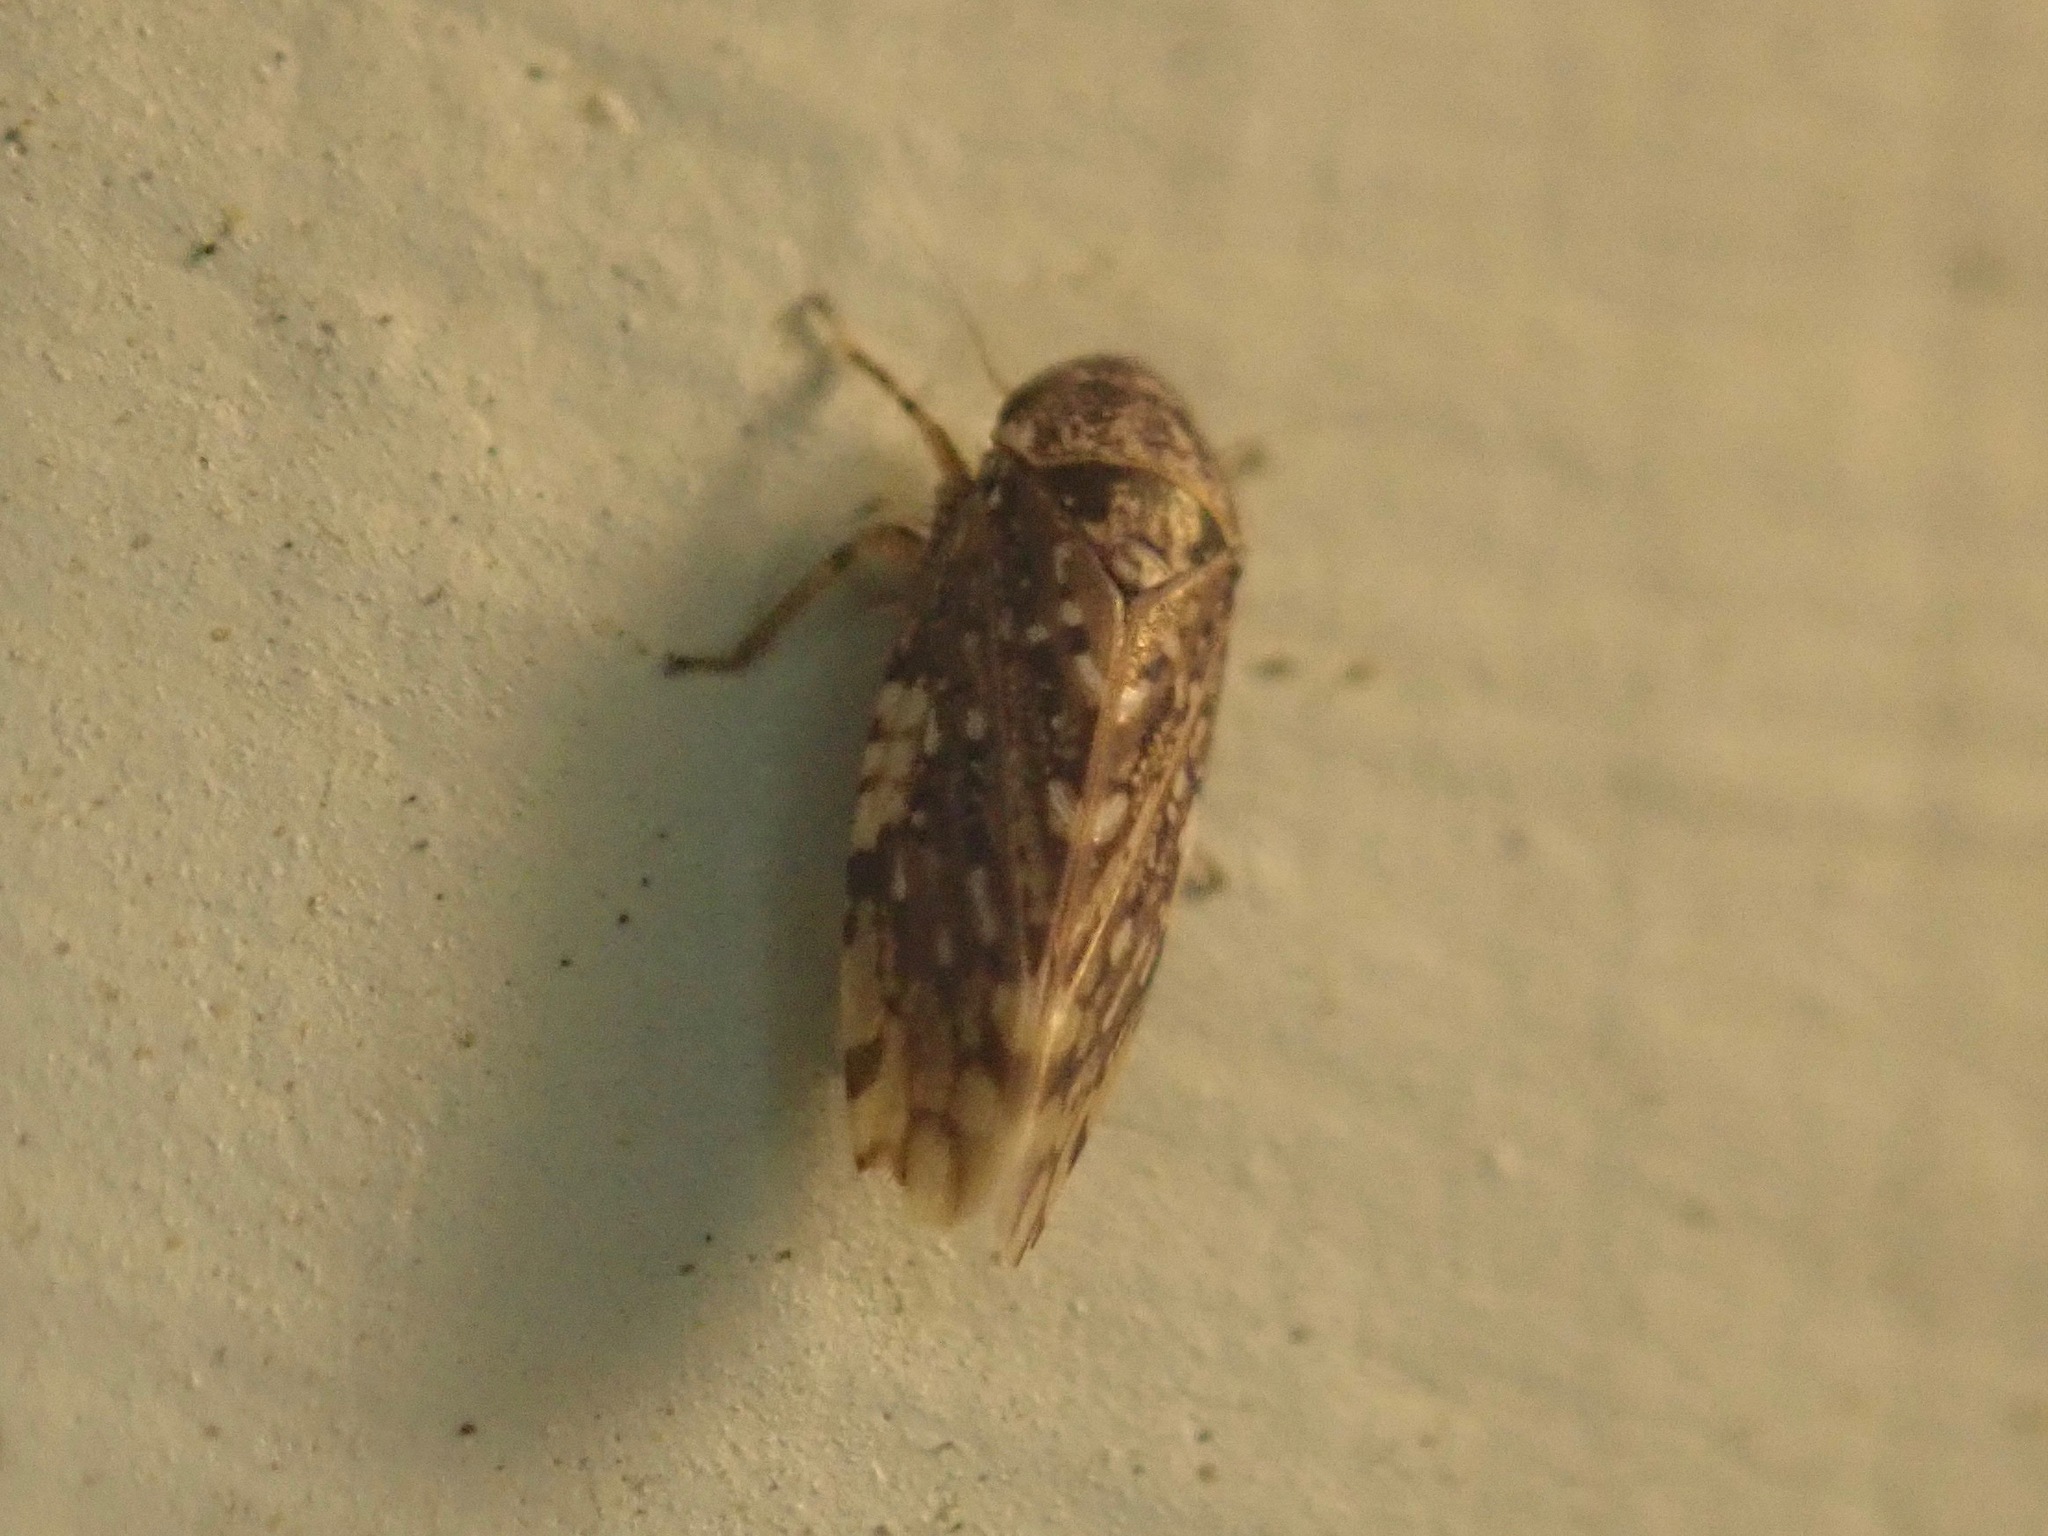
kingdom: Animalia
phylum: Arthropoda
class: Insecta
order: Hemiptera
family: Cicadellidae
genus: Xestocephalus
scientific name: Xestocephalus tessellatus
